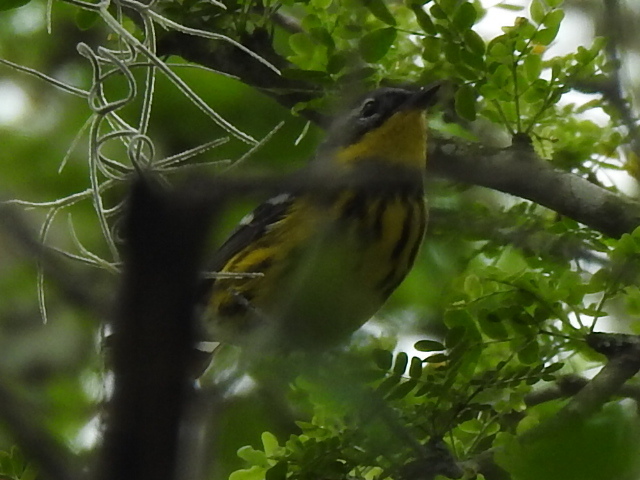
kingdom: Animalia
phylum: Chordata
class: Aves
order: Passeriformes
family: Parulidae
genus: Setophaga
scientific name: Setophaga magnolia
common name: Magnolia warbler
